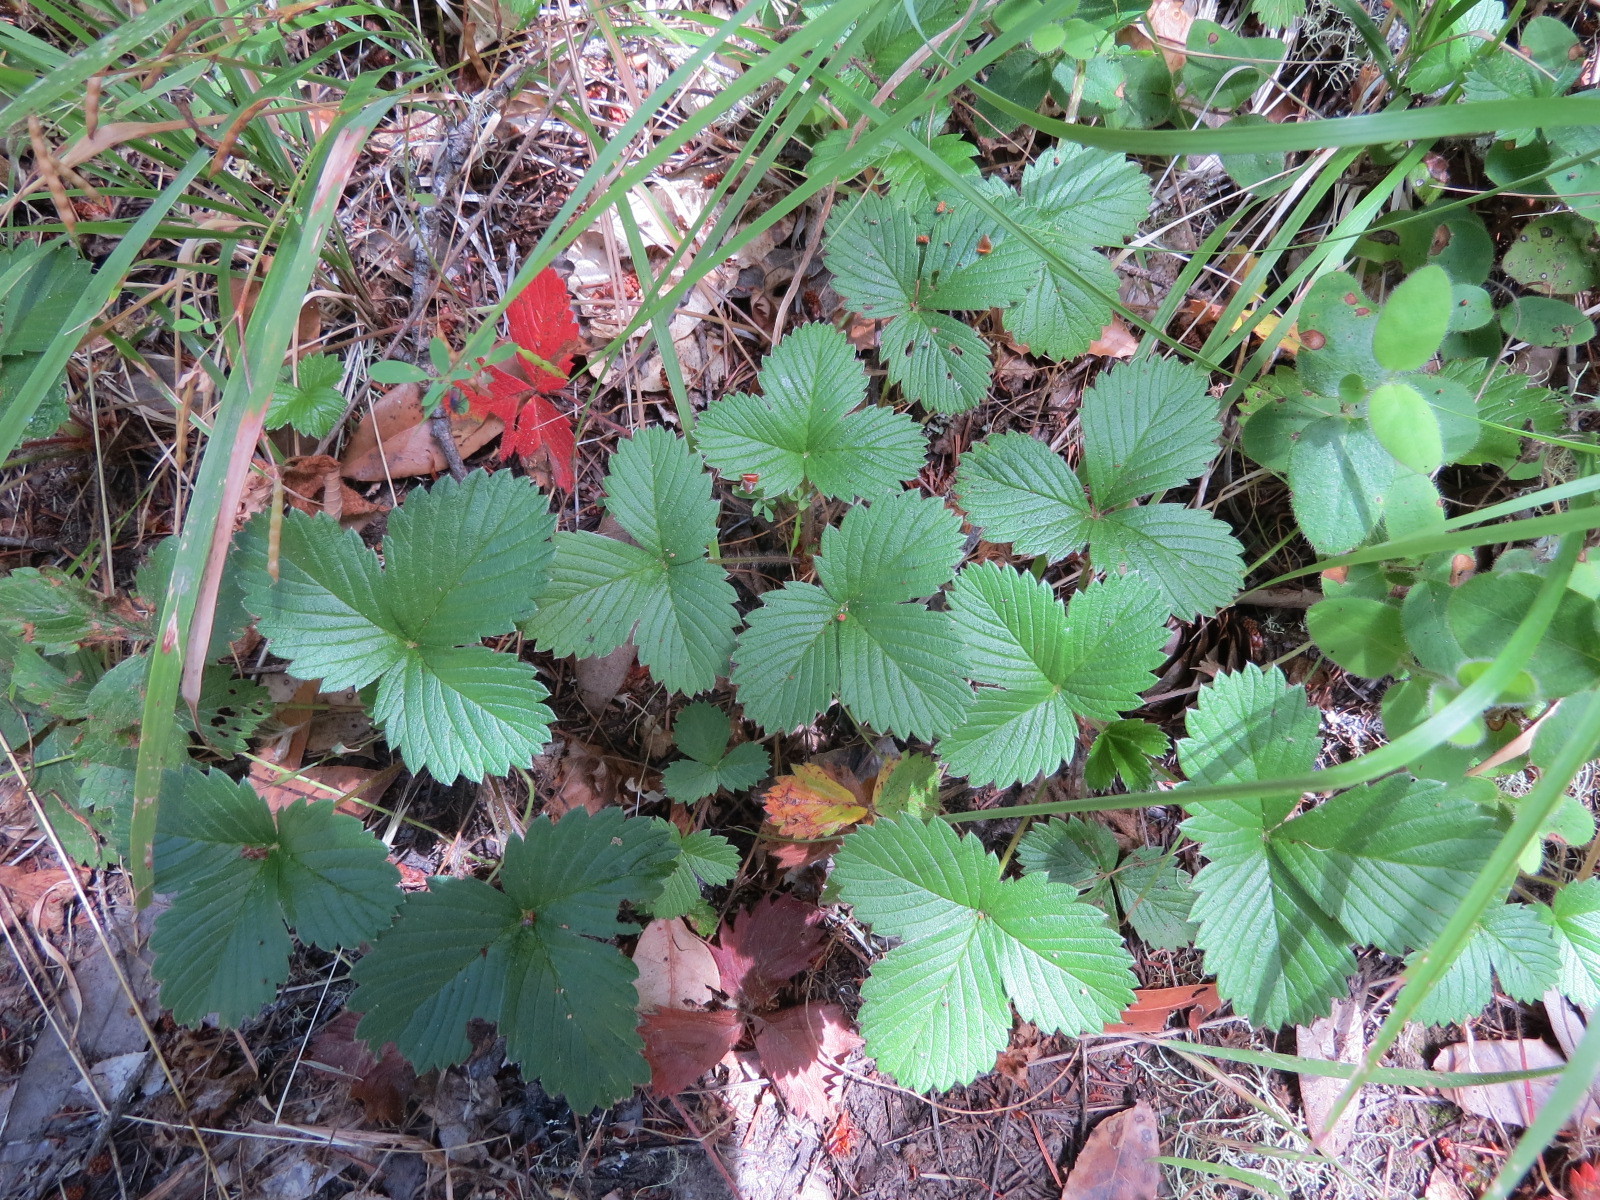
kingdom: Plantae
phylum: Tracheophyta
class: Magnoliopsida
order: Rosales
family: Rosaceae
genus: Fragaria
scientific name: Fragaria vesca
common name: Wild strawberry
